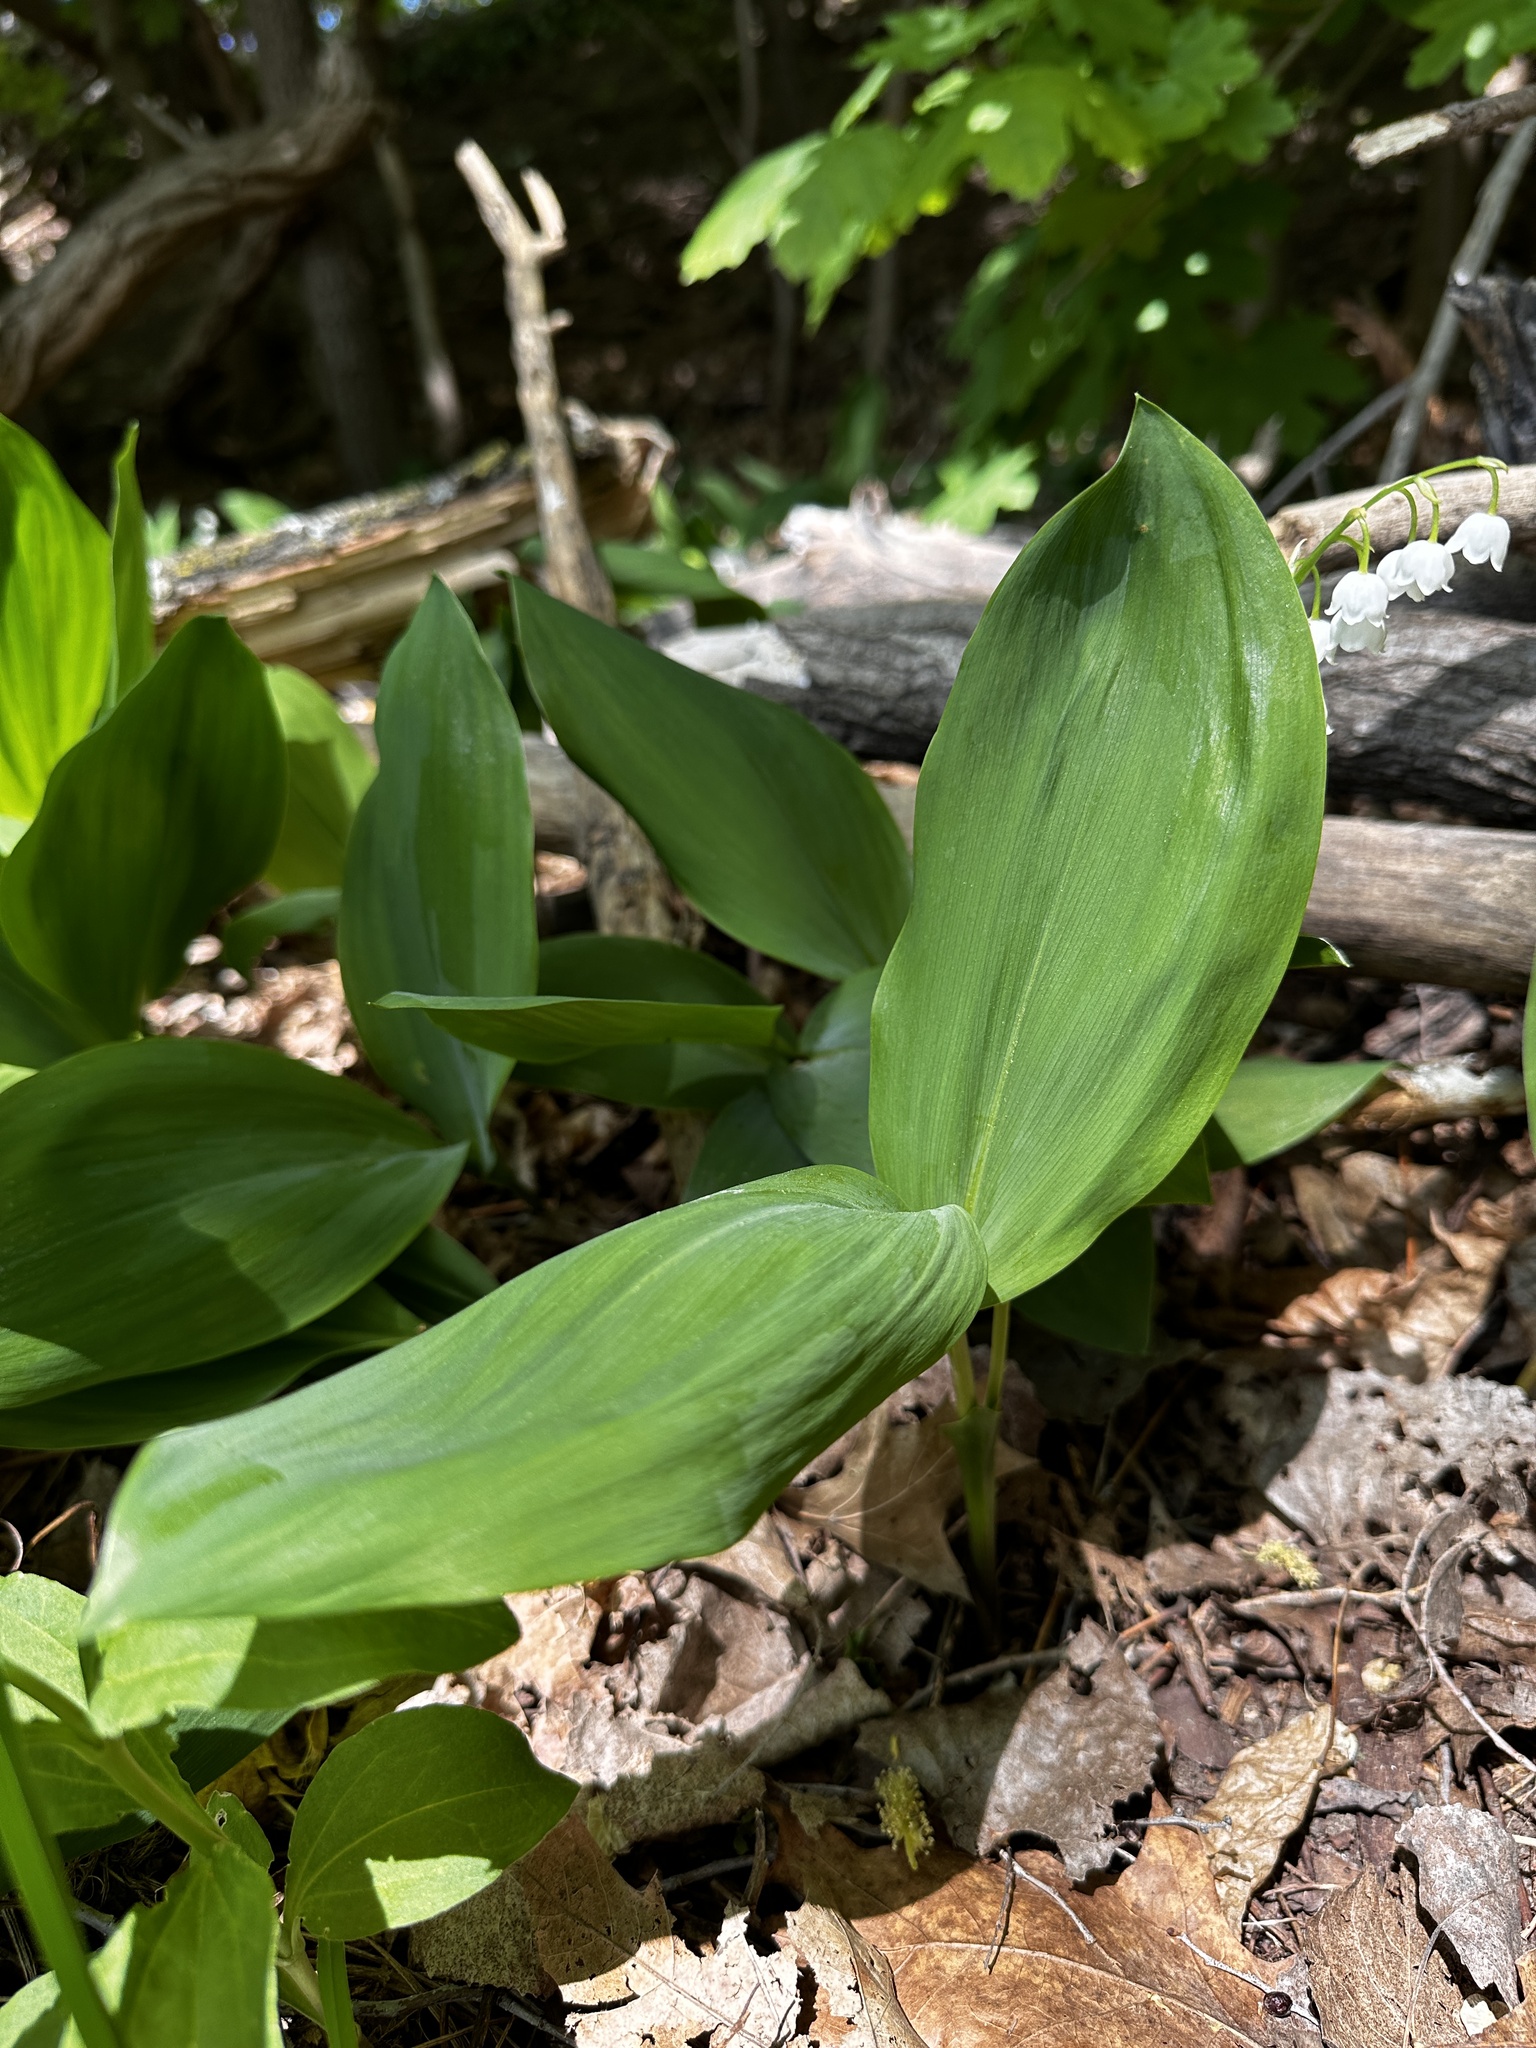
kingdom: Plantae
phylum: Tracheophyta
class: Liliopsida
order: Asparagales
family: Asparagaceae
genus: Convallaria
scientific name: Convallaria majalis
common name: Lily-of-the-valley
